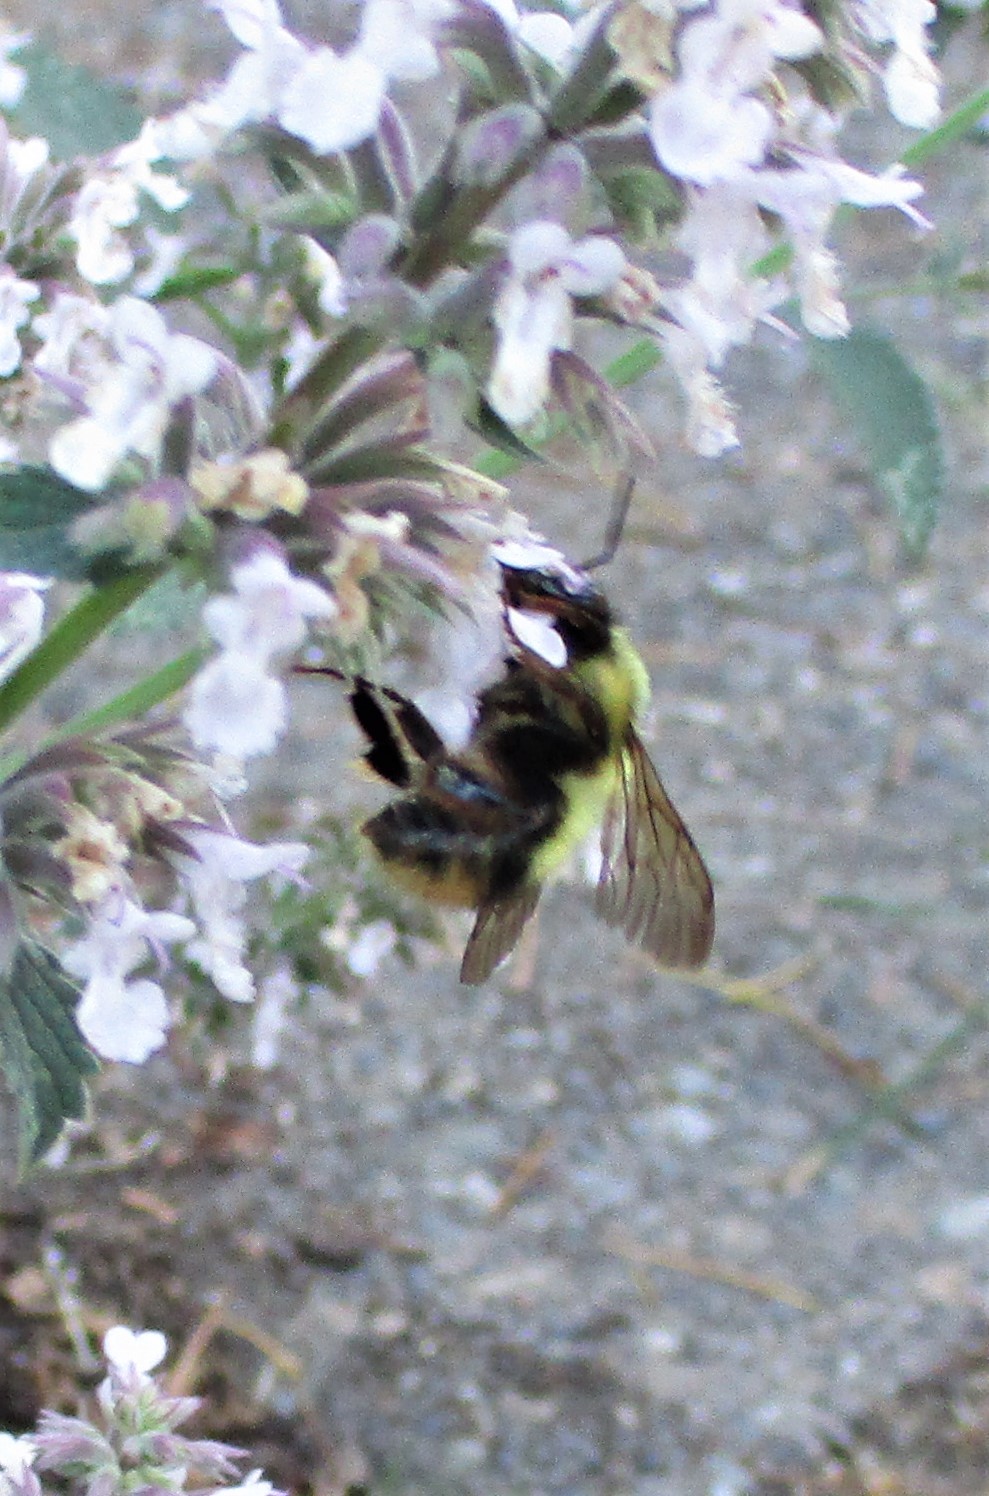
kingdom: Animalia
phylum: Arthropoda
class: Insecta
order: Hymenoptera
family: Apidae
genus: Bombus
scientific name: Bombus mixtus
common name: Fuzzy-horned bumble bee
